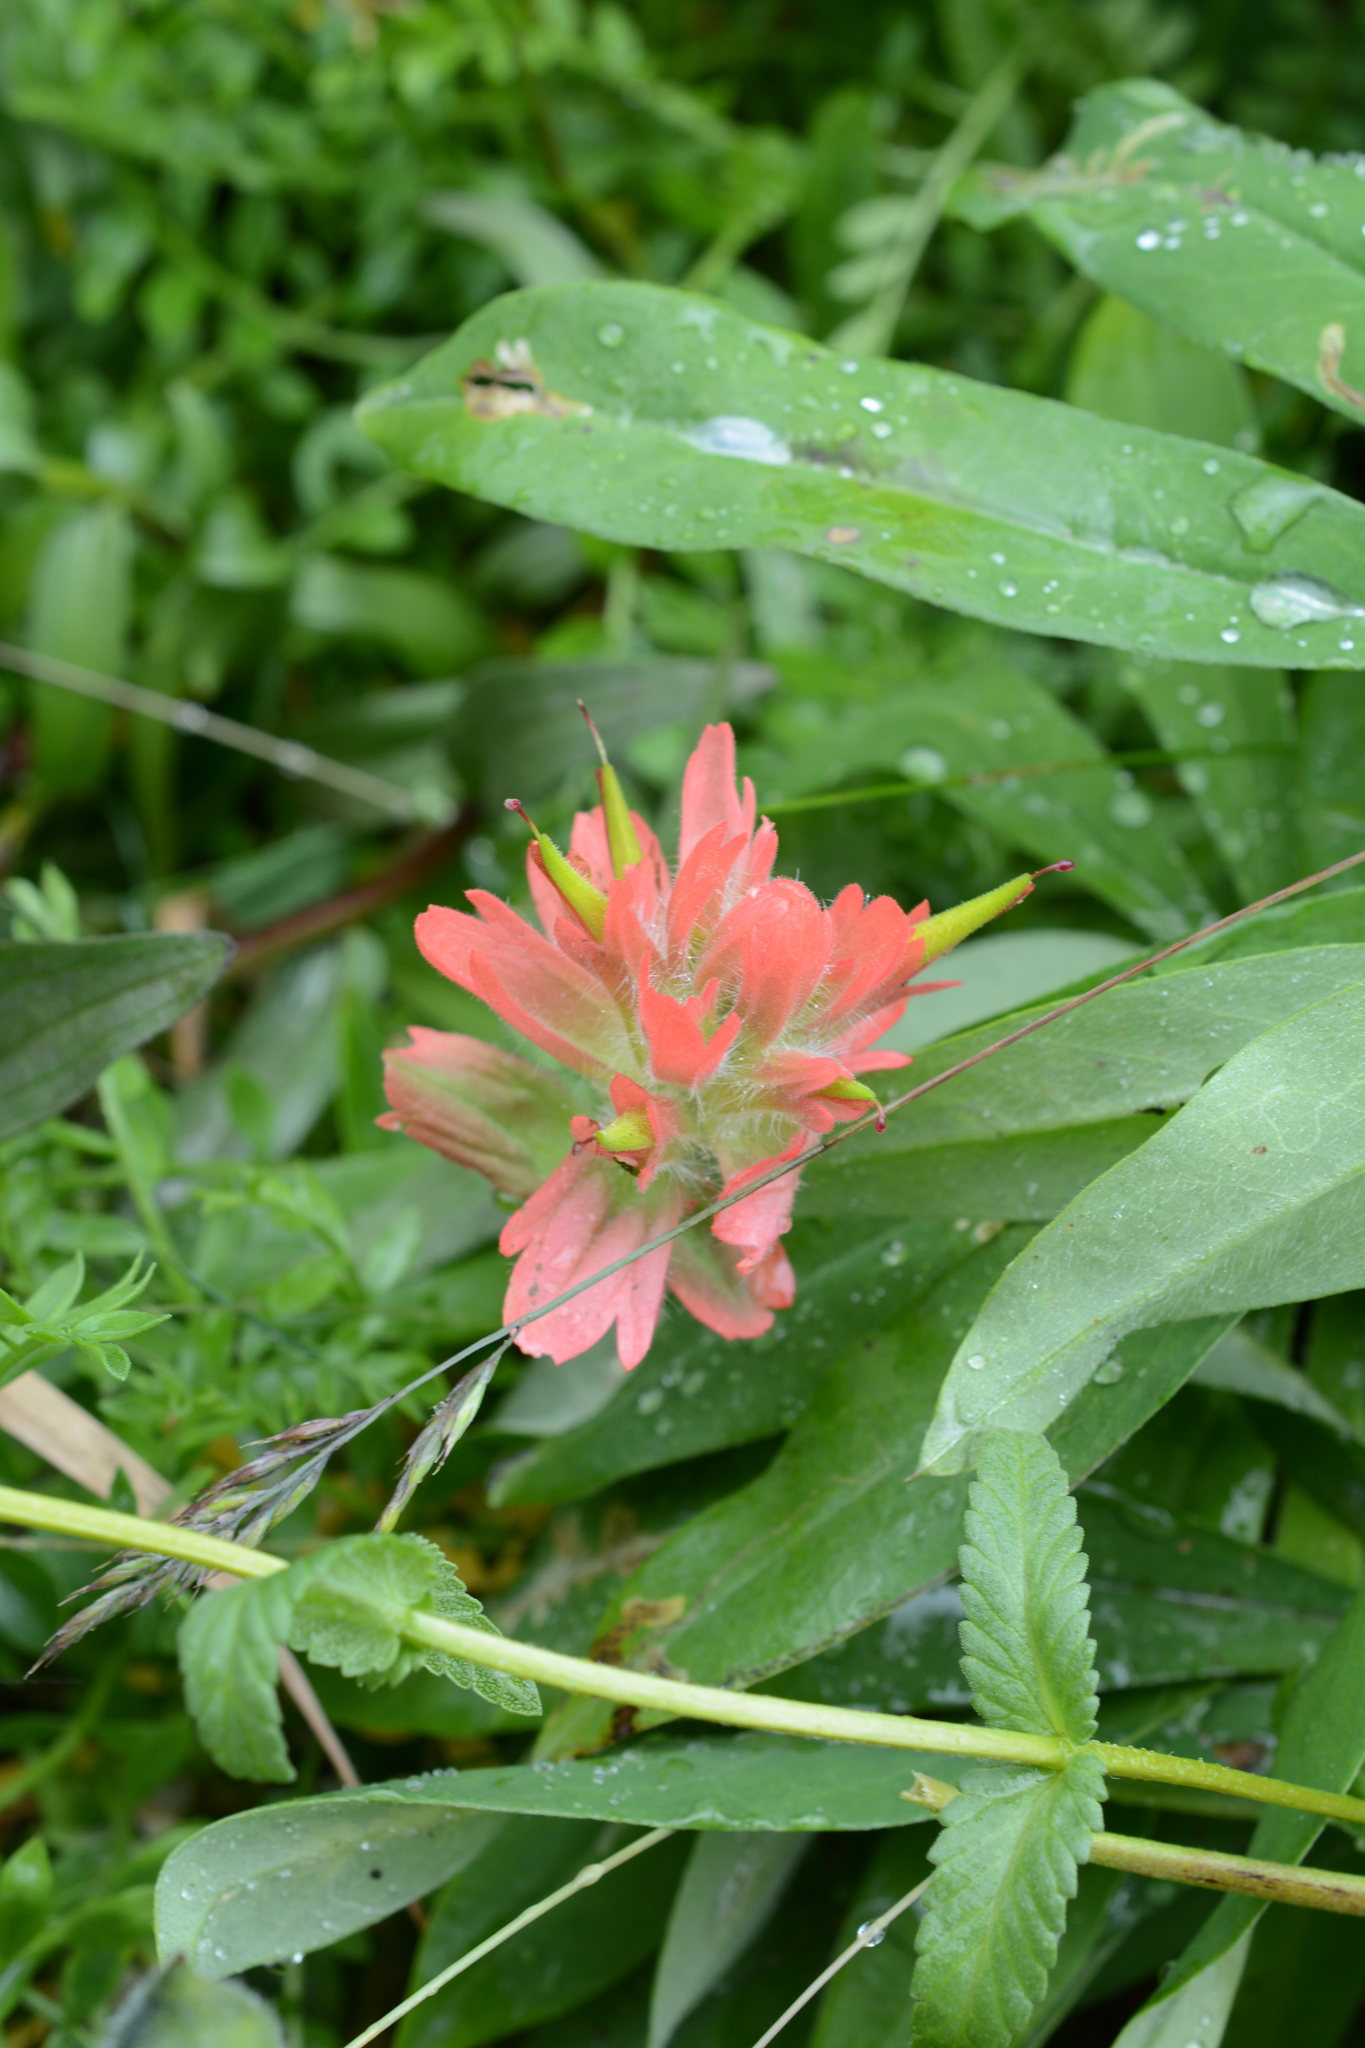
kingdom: Plantae
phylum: Tracheophyta
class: Magnoliopsida
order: Lamiales
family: Orobanchaceae
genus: Castilleja
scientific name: Castilleja miniata
